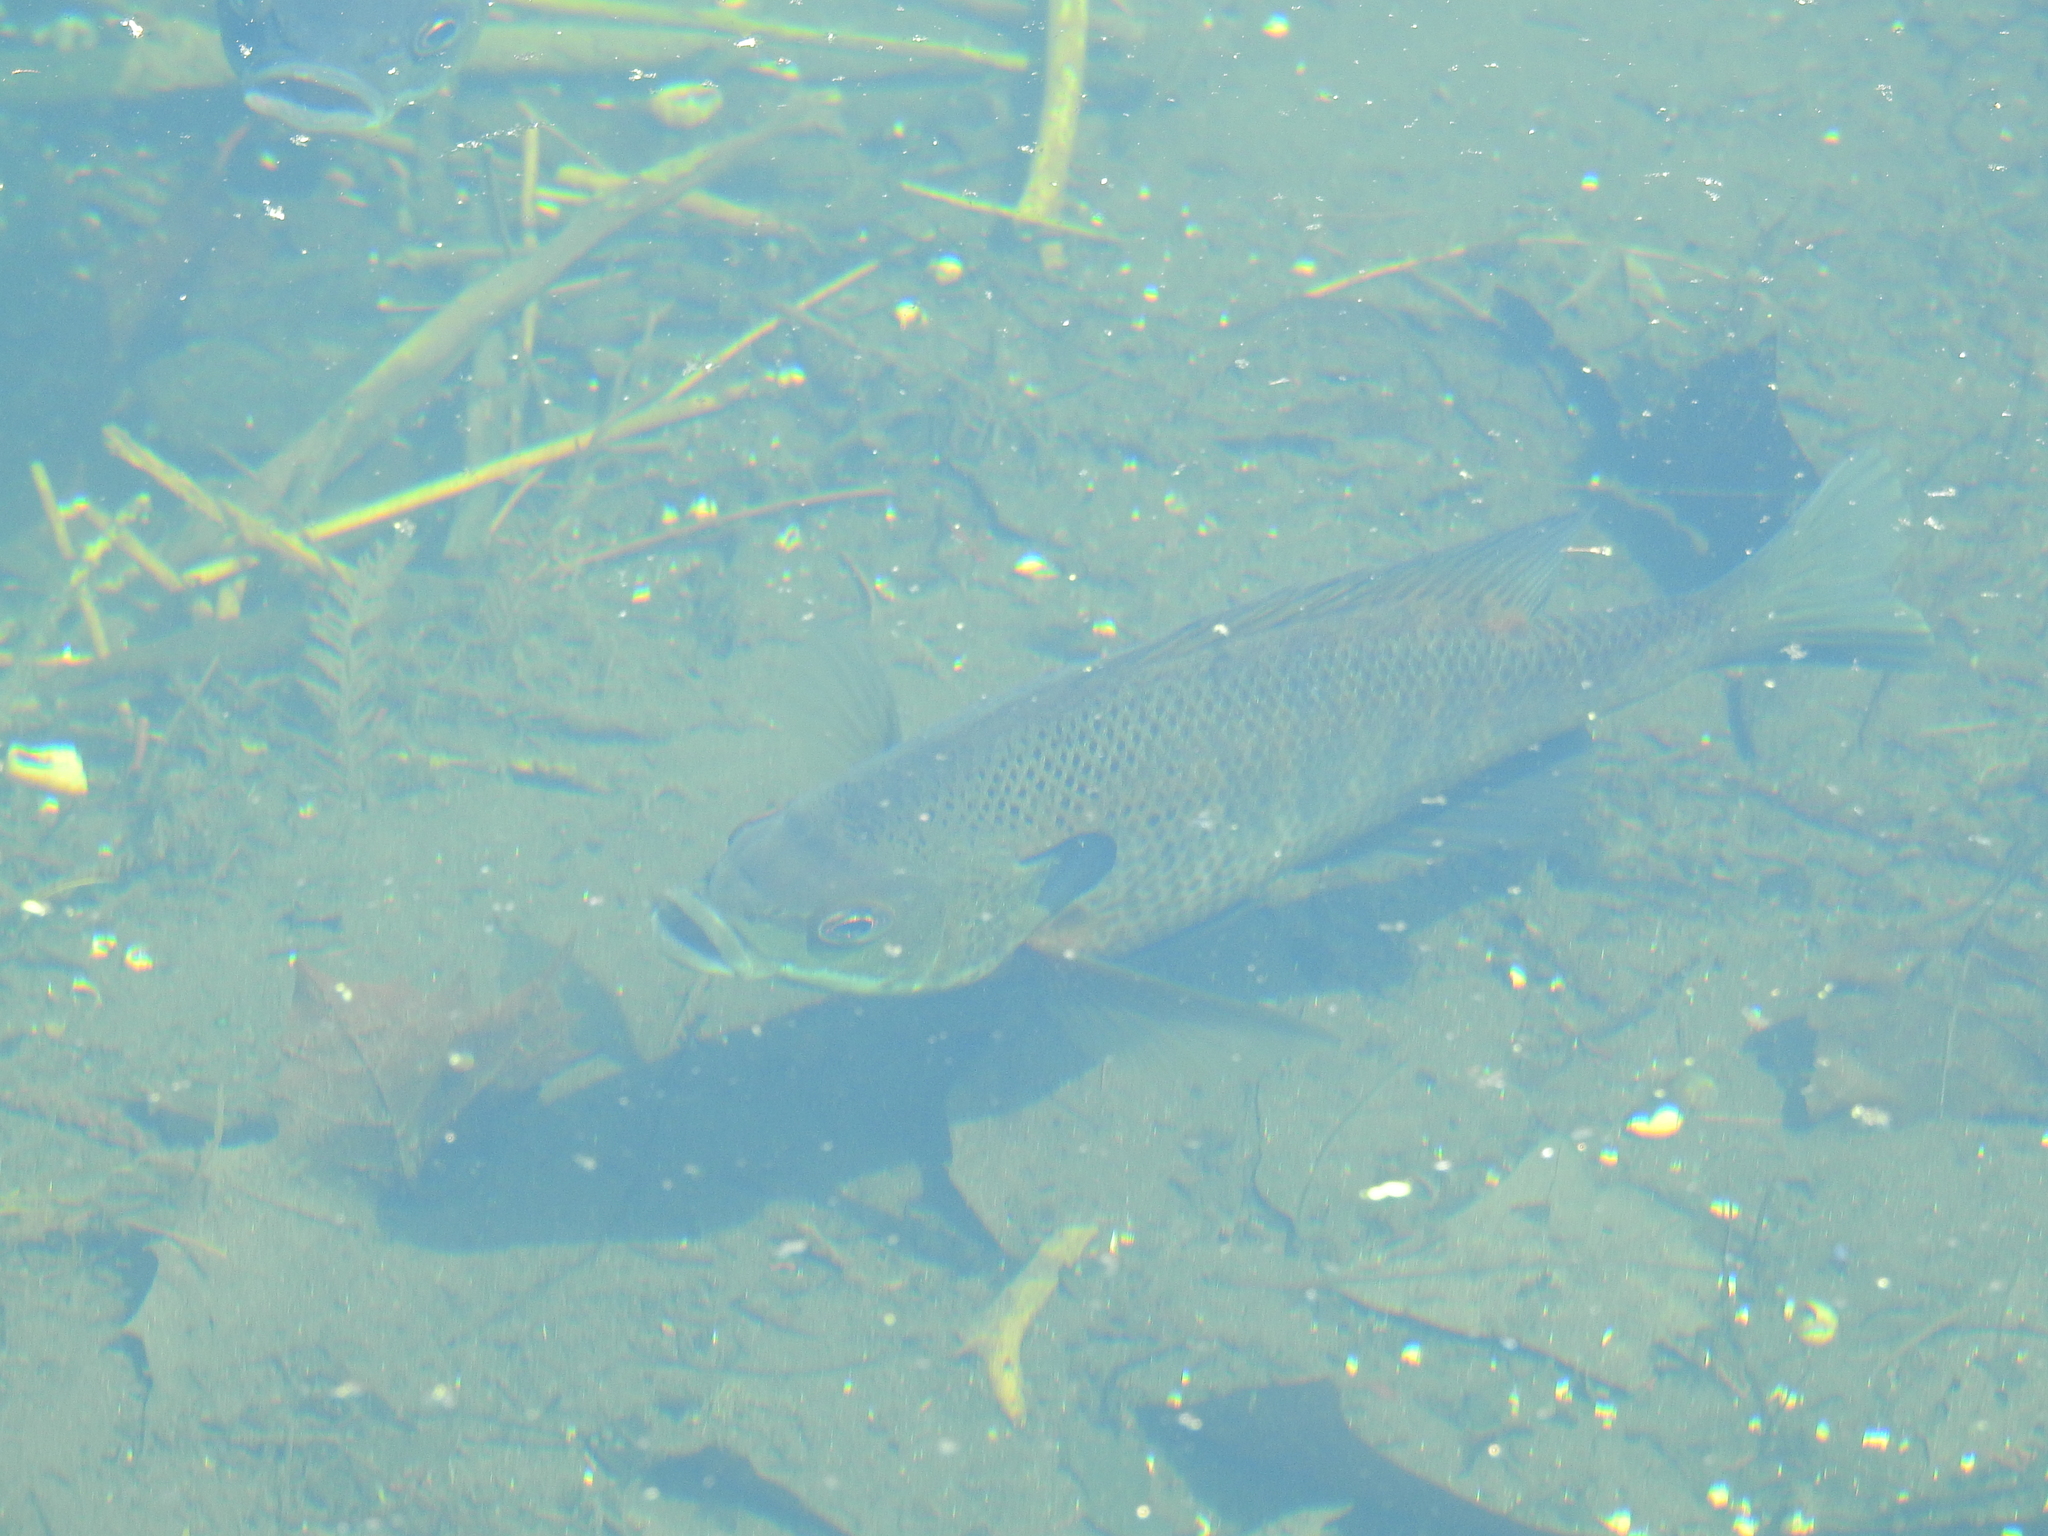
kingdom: Animalia
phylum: Chordata
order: Perciformes
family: Centrarchidae
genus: Lepomis
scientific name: Lepomis macrochirus
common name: Bluegill
